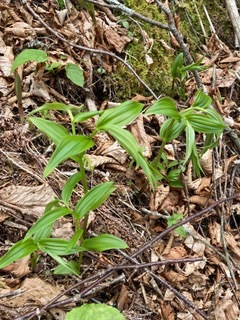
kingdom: Plantae
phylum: Tracheophyta
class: Liliopsida
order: Liliales
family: Liliaceae
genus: Streptopus
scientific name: Streptopus lanceolatus
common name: Rose mandarin
